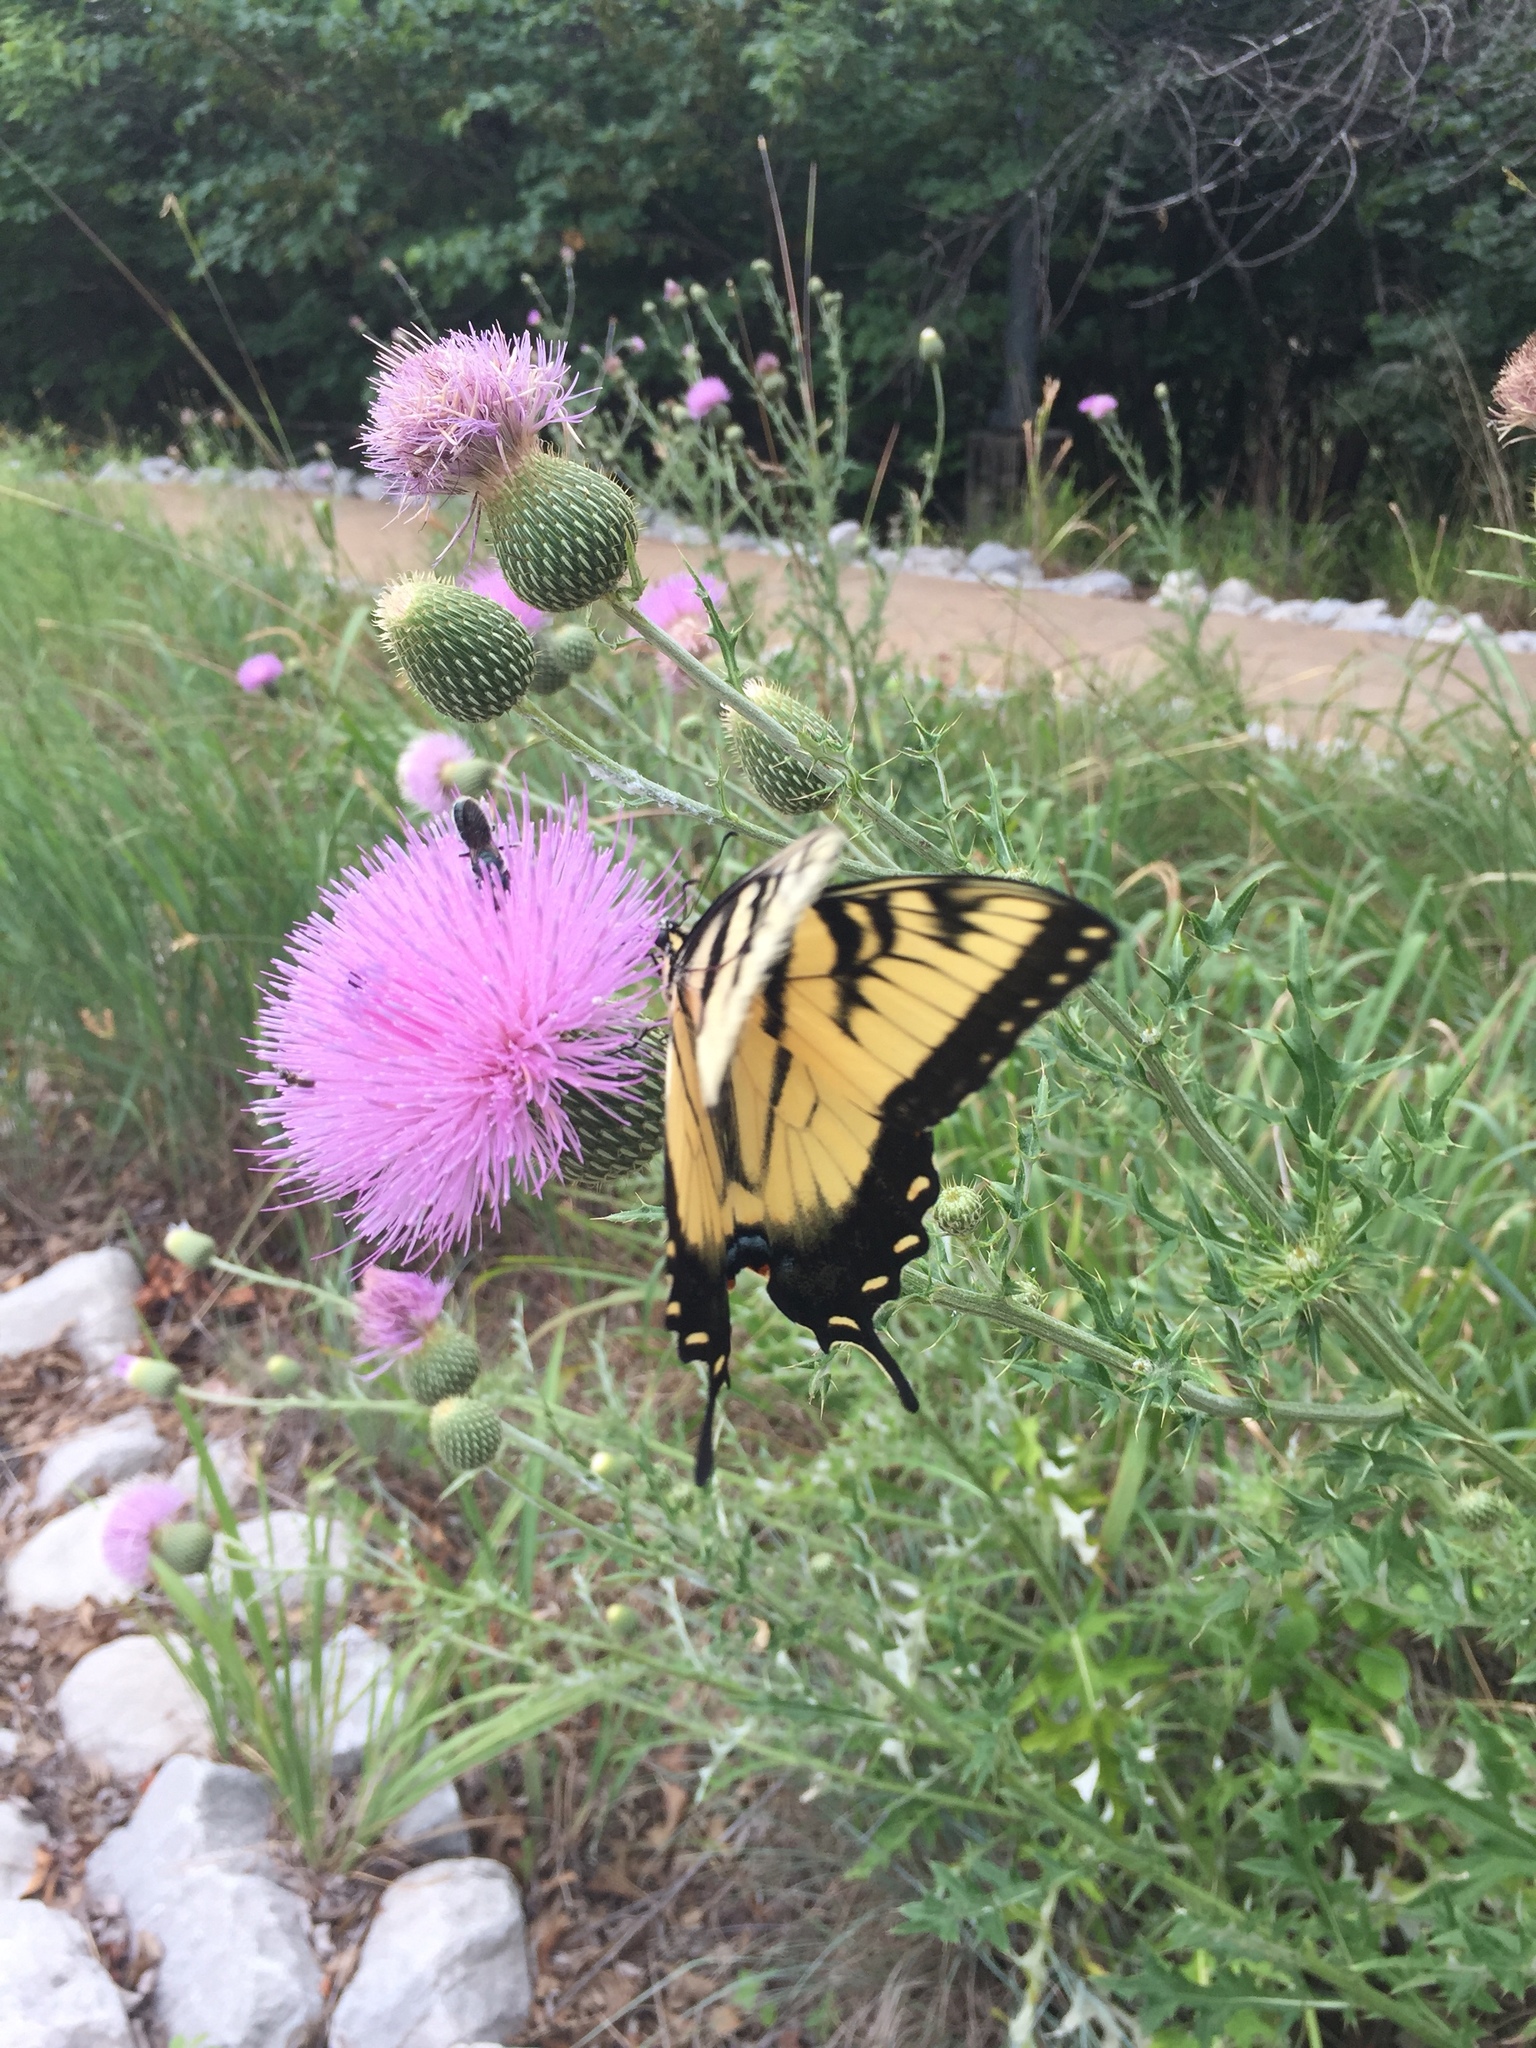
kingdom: Animalia
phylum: Arthropoda
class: Insecta
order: Lepidoptera
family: Papilionidae
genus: Papilio
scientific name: Papilio glaucus
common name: Tiger swallowtail
